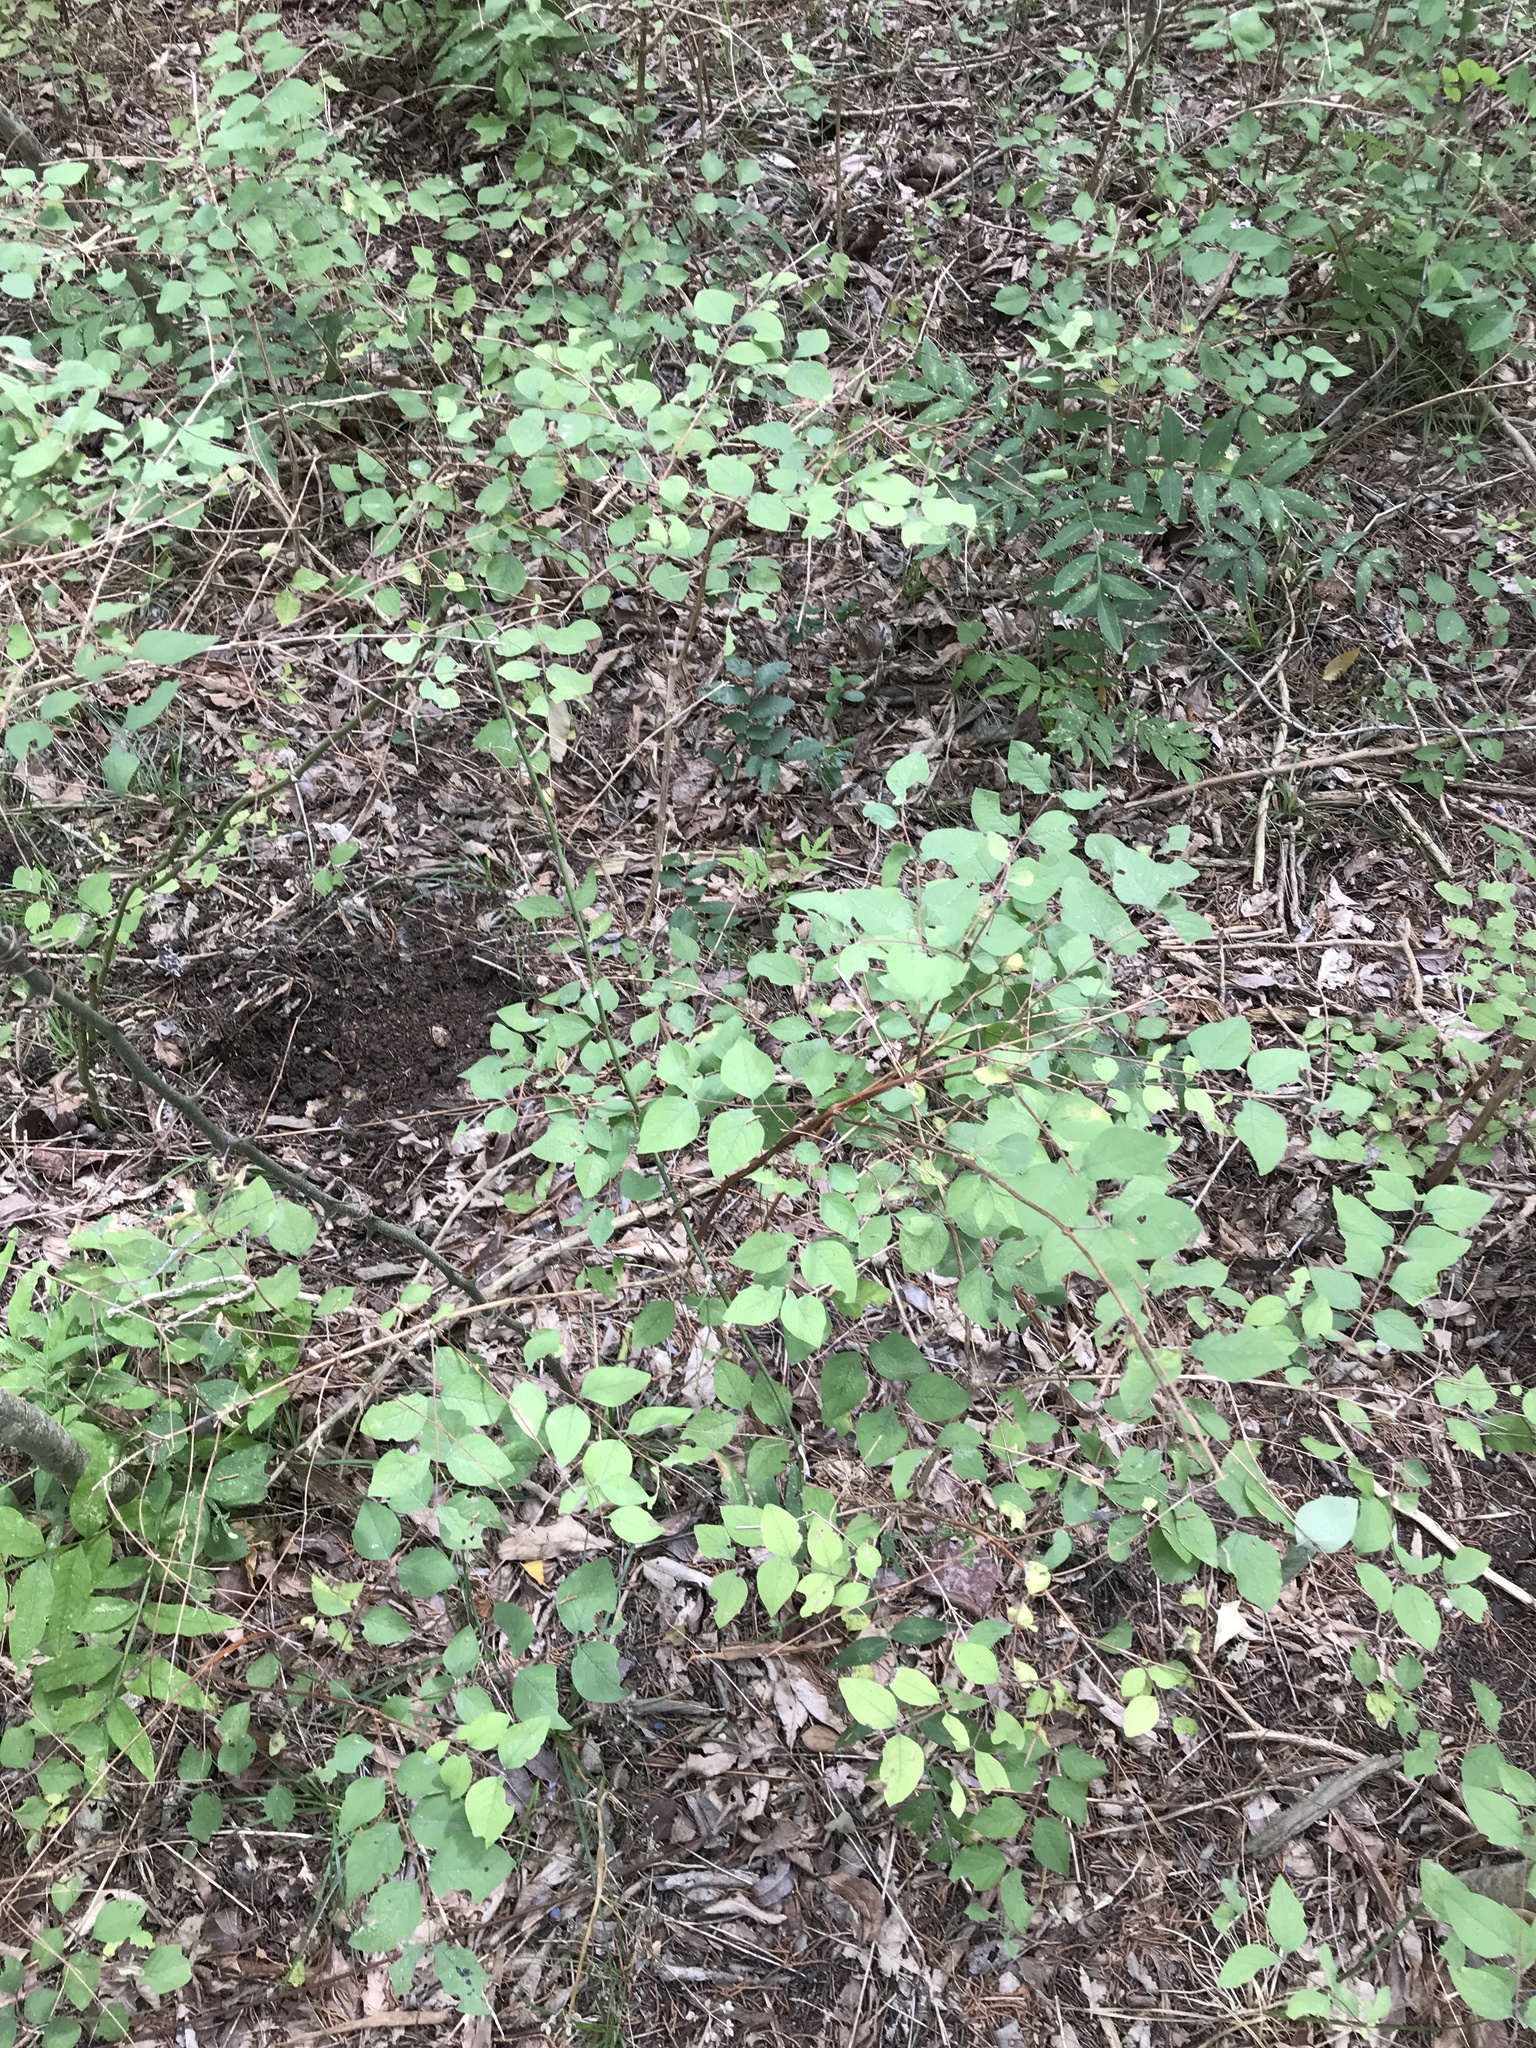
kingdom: Plantae
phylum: Tracheophyta
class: Magnoliopsida
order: Dipsacales
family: Caprifoliaceae
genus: Symphoricarpos
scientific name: Symphoricarpos orbiculatus
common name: Coralberry
